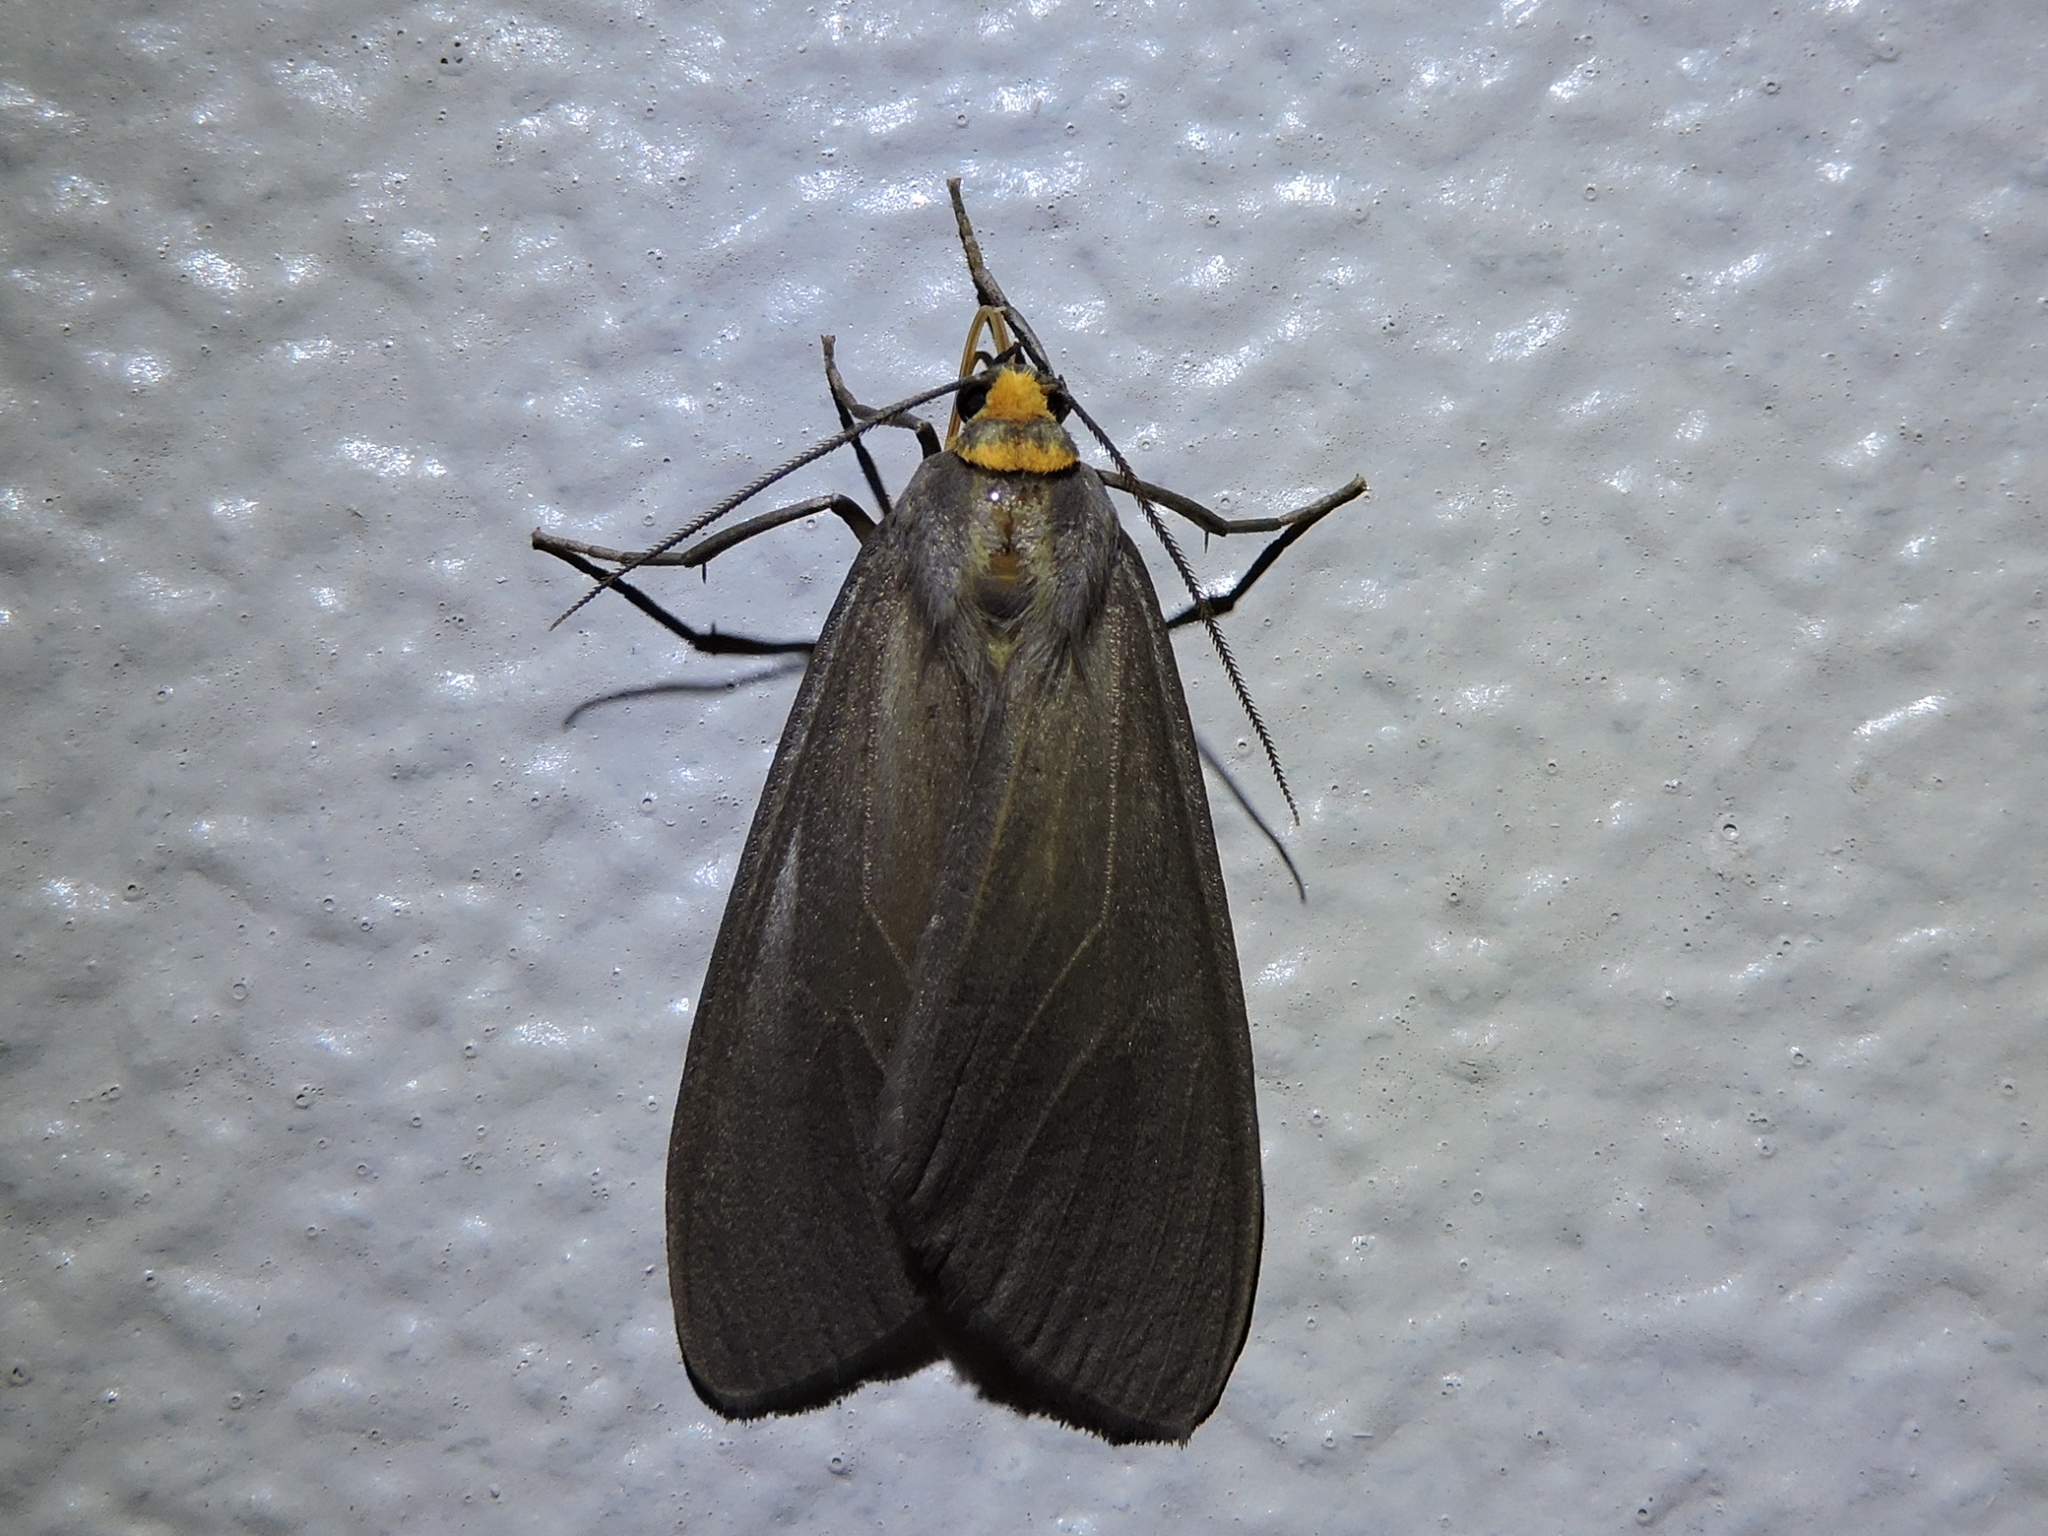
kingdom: Animalia
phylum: Arthropoda
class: Insecta
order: Lepidoptera
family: Erebidae
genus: Opharus
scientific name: Opharus muricolor
